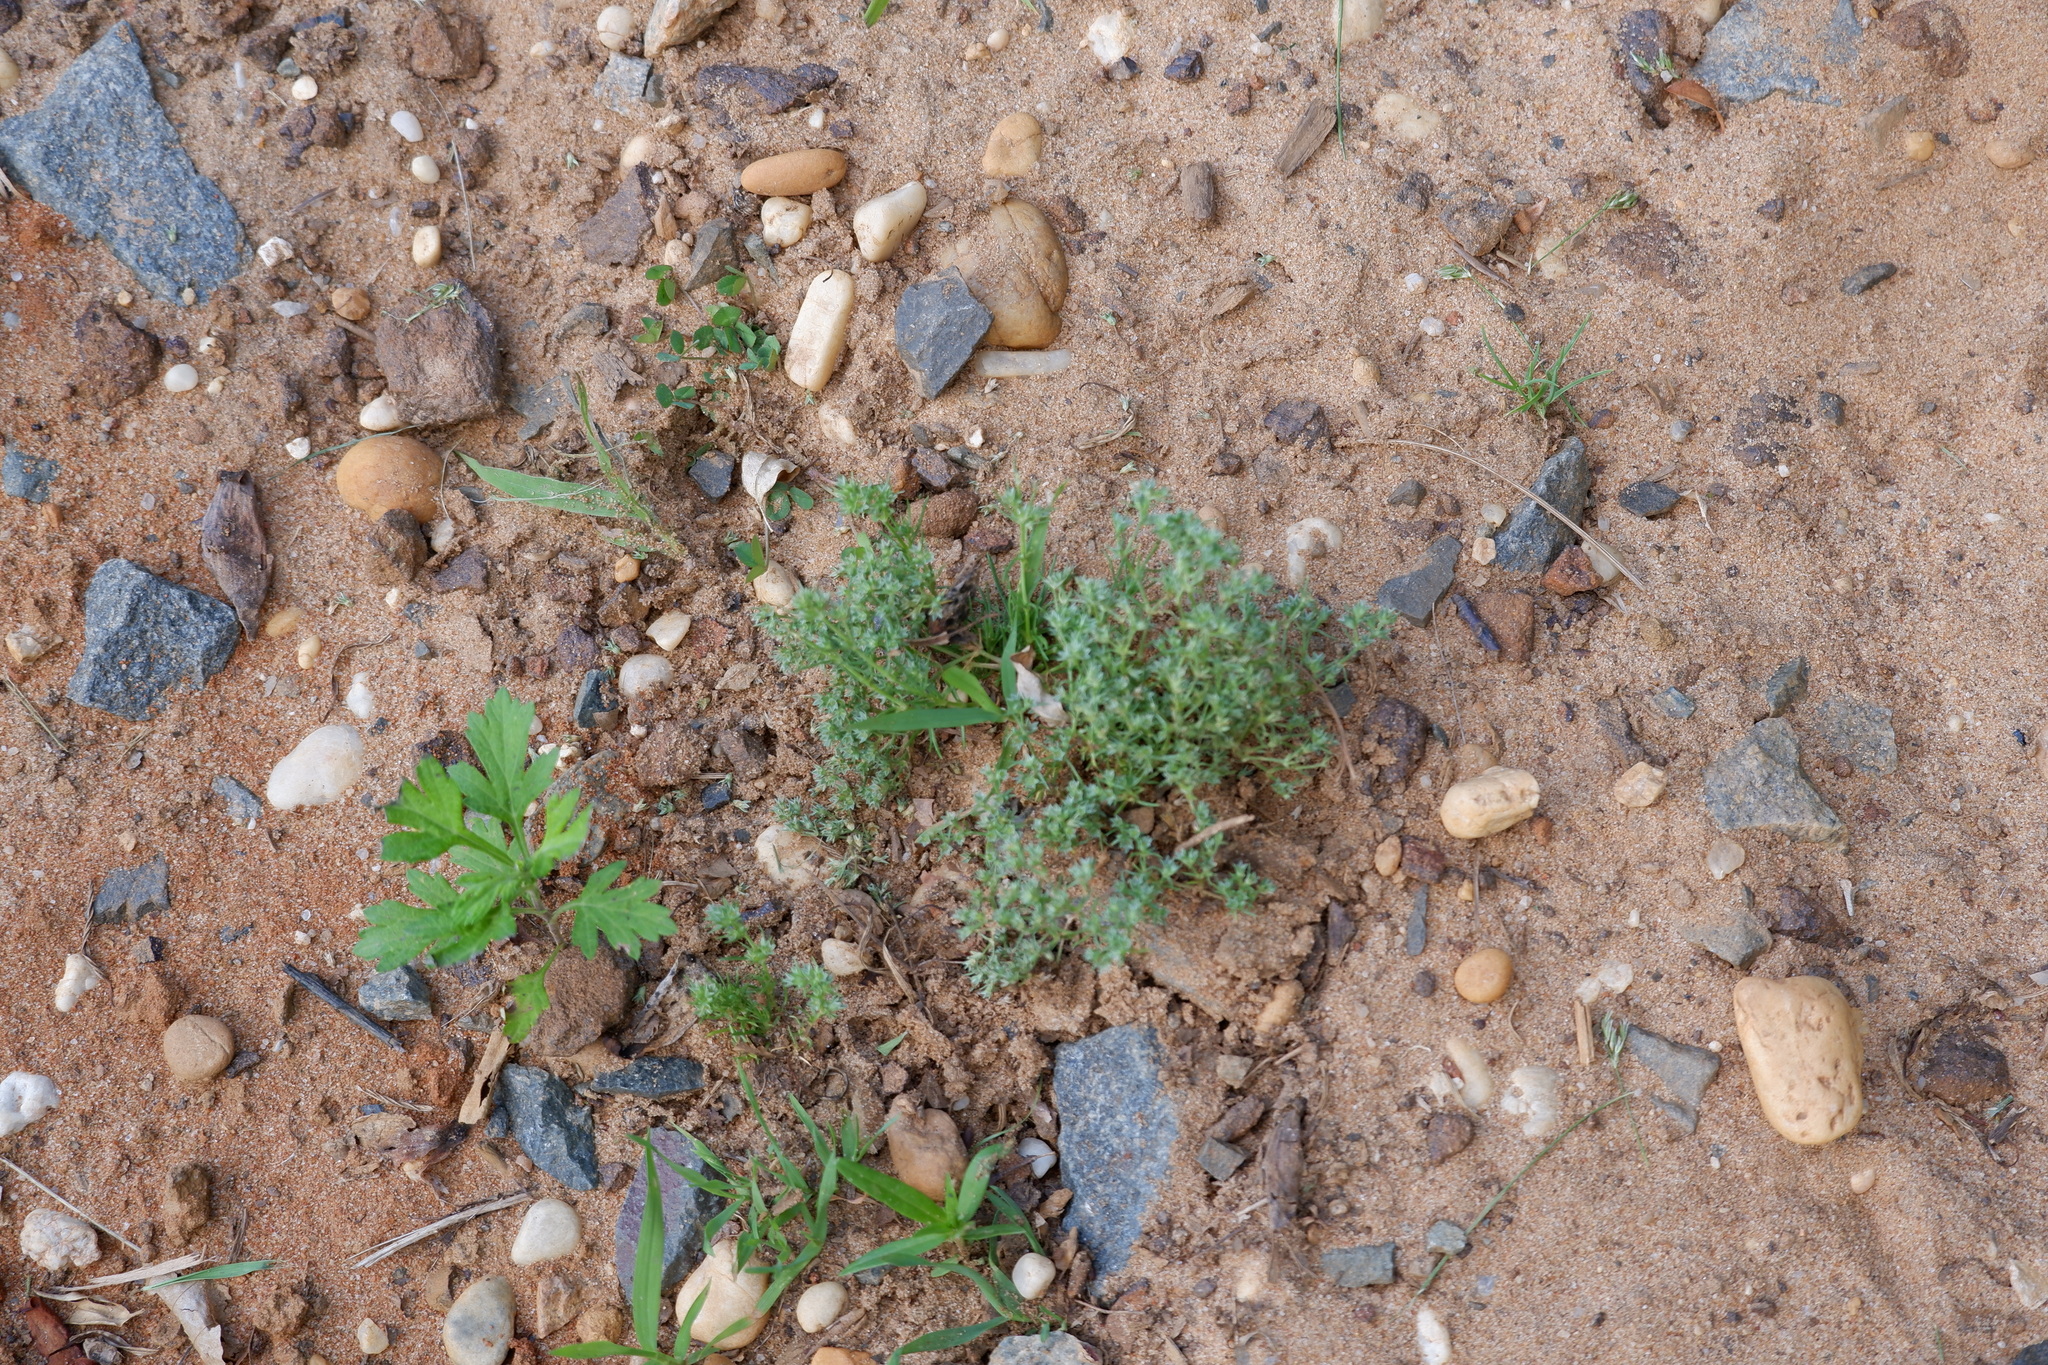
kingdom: Plantae
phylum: Tracheophyta
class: Magnoliopsida
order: Caryophyllales
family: Caryophyllaceae
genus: Scleranthus
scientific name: Scleranthus annuus
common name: Annual knawel
